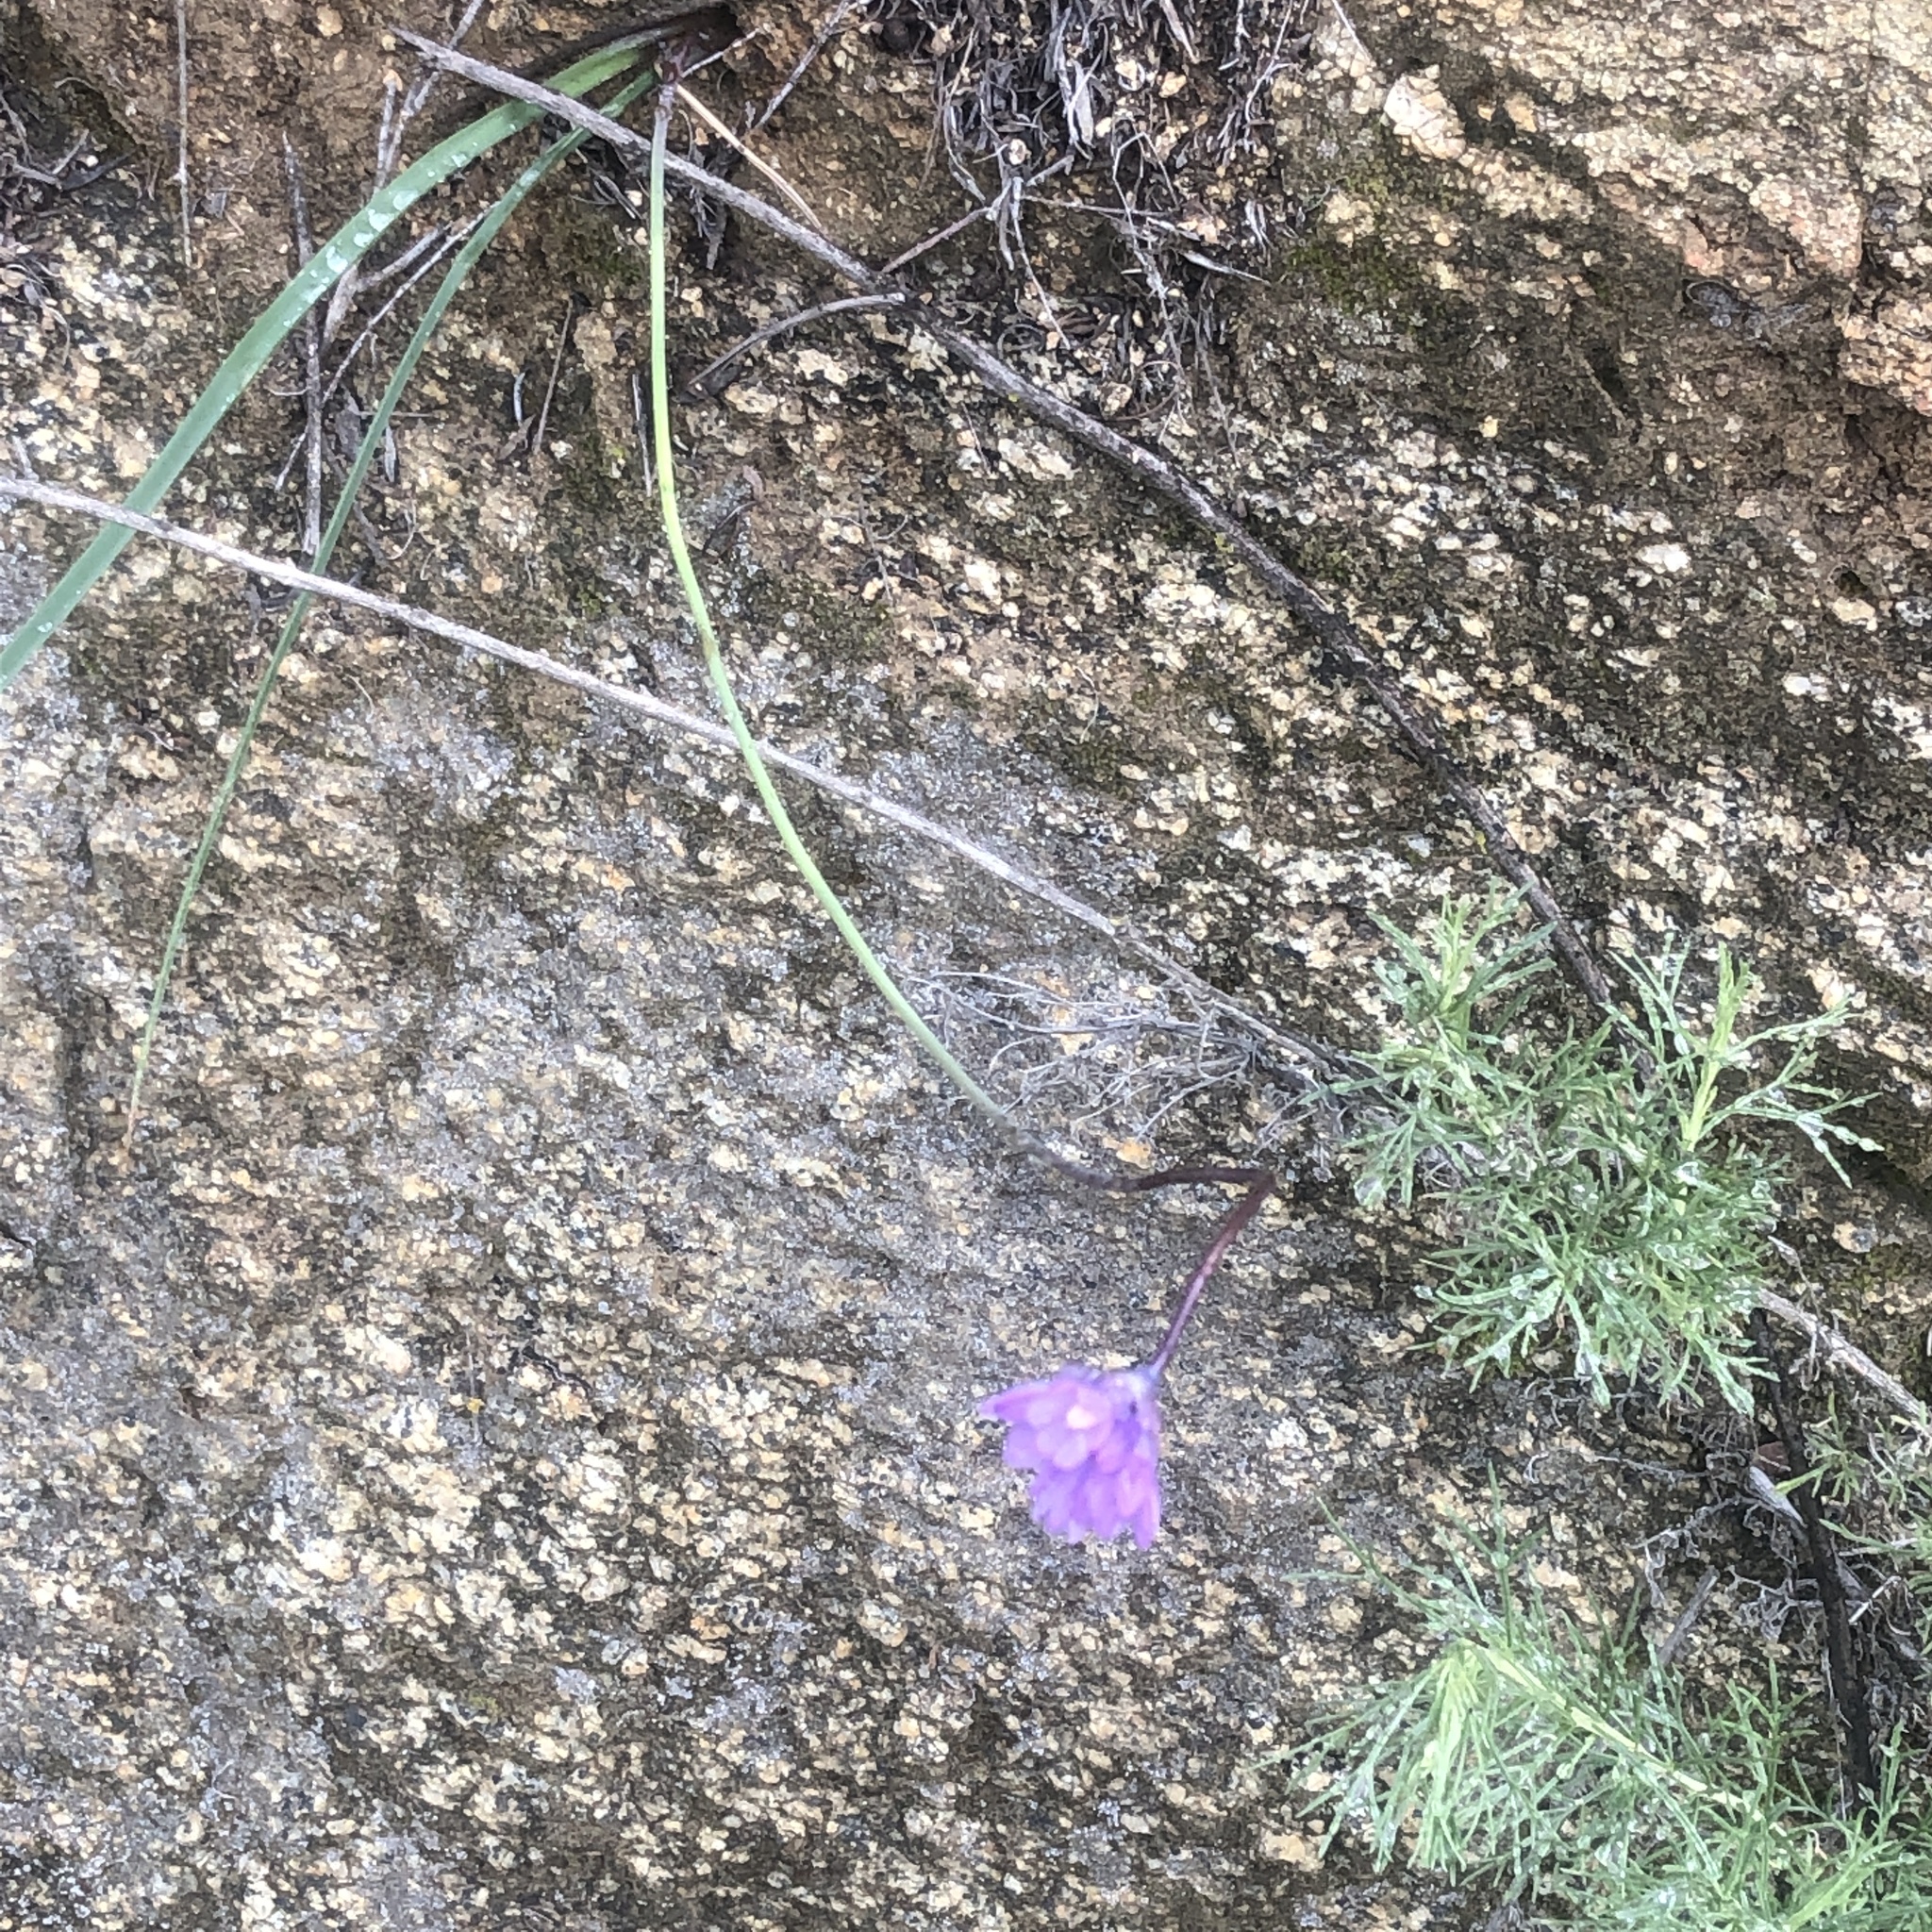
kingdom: Plantae
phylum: Tracheophyta
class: Liliopsida
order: Asparagales
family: Asparagaceae
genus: Dipterostemon
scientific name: Dipterostemon capitatus
